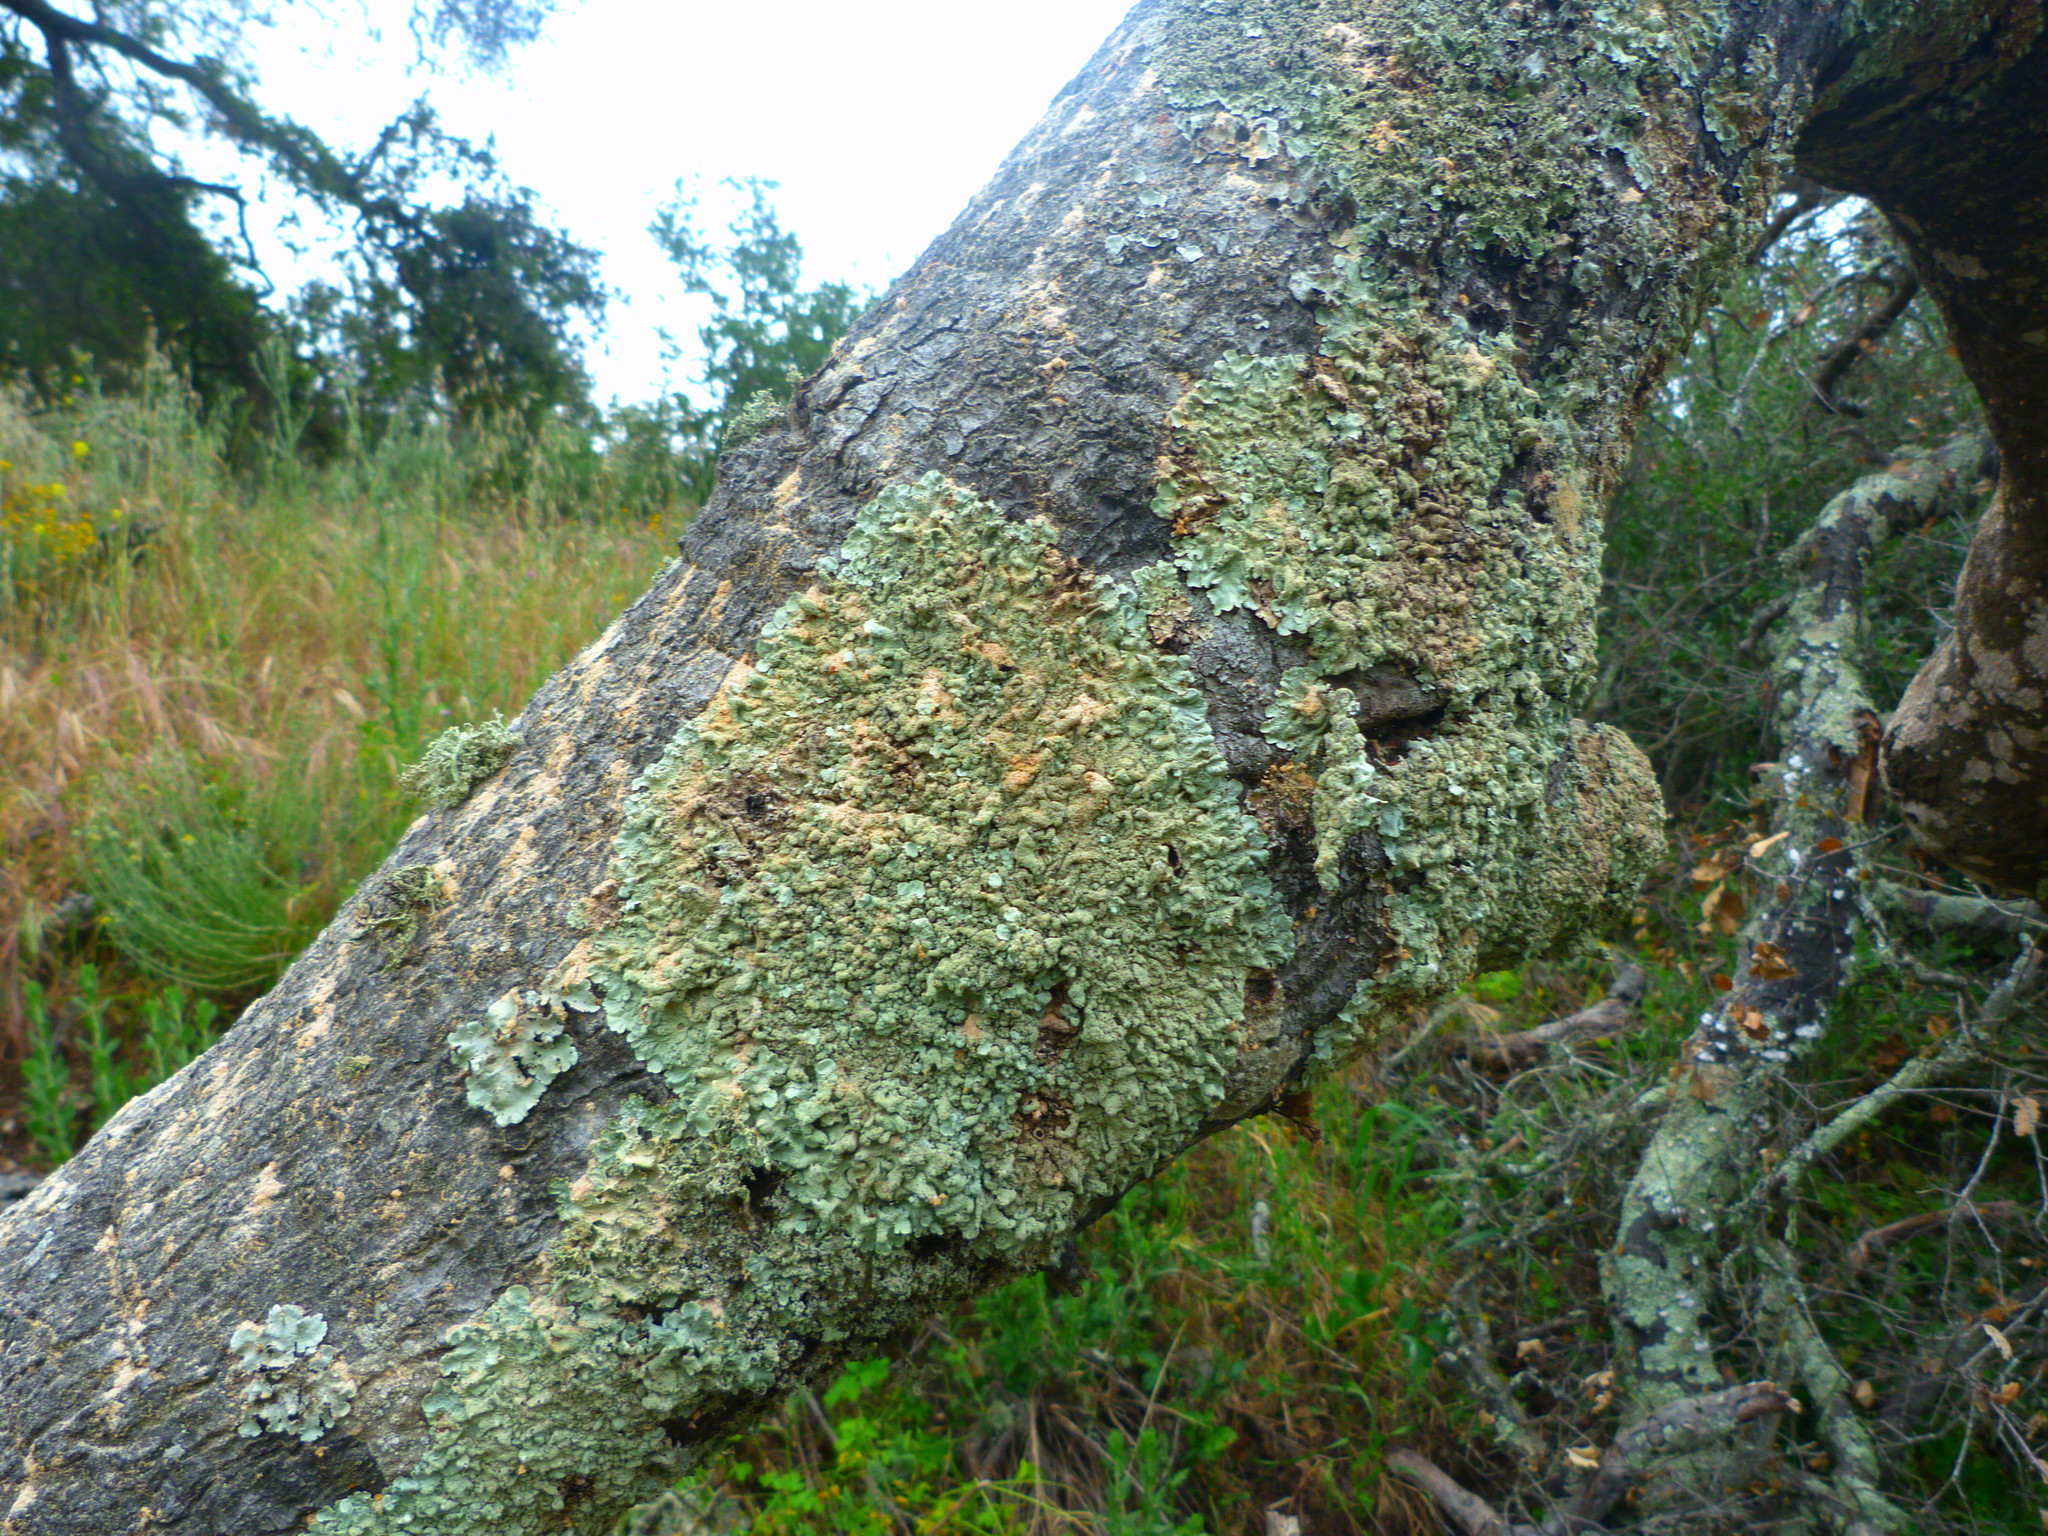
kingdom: Fungi
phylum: Ascomycota
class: Lecanoromycetes
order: Lecanorales
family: Parmeliaceae
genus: Flavoparmelia
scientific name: Flavoparmelia caperata
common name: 40-mile per hour lichen
